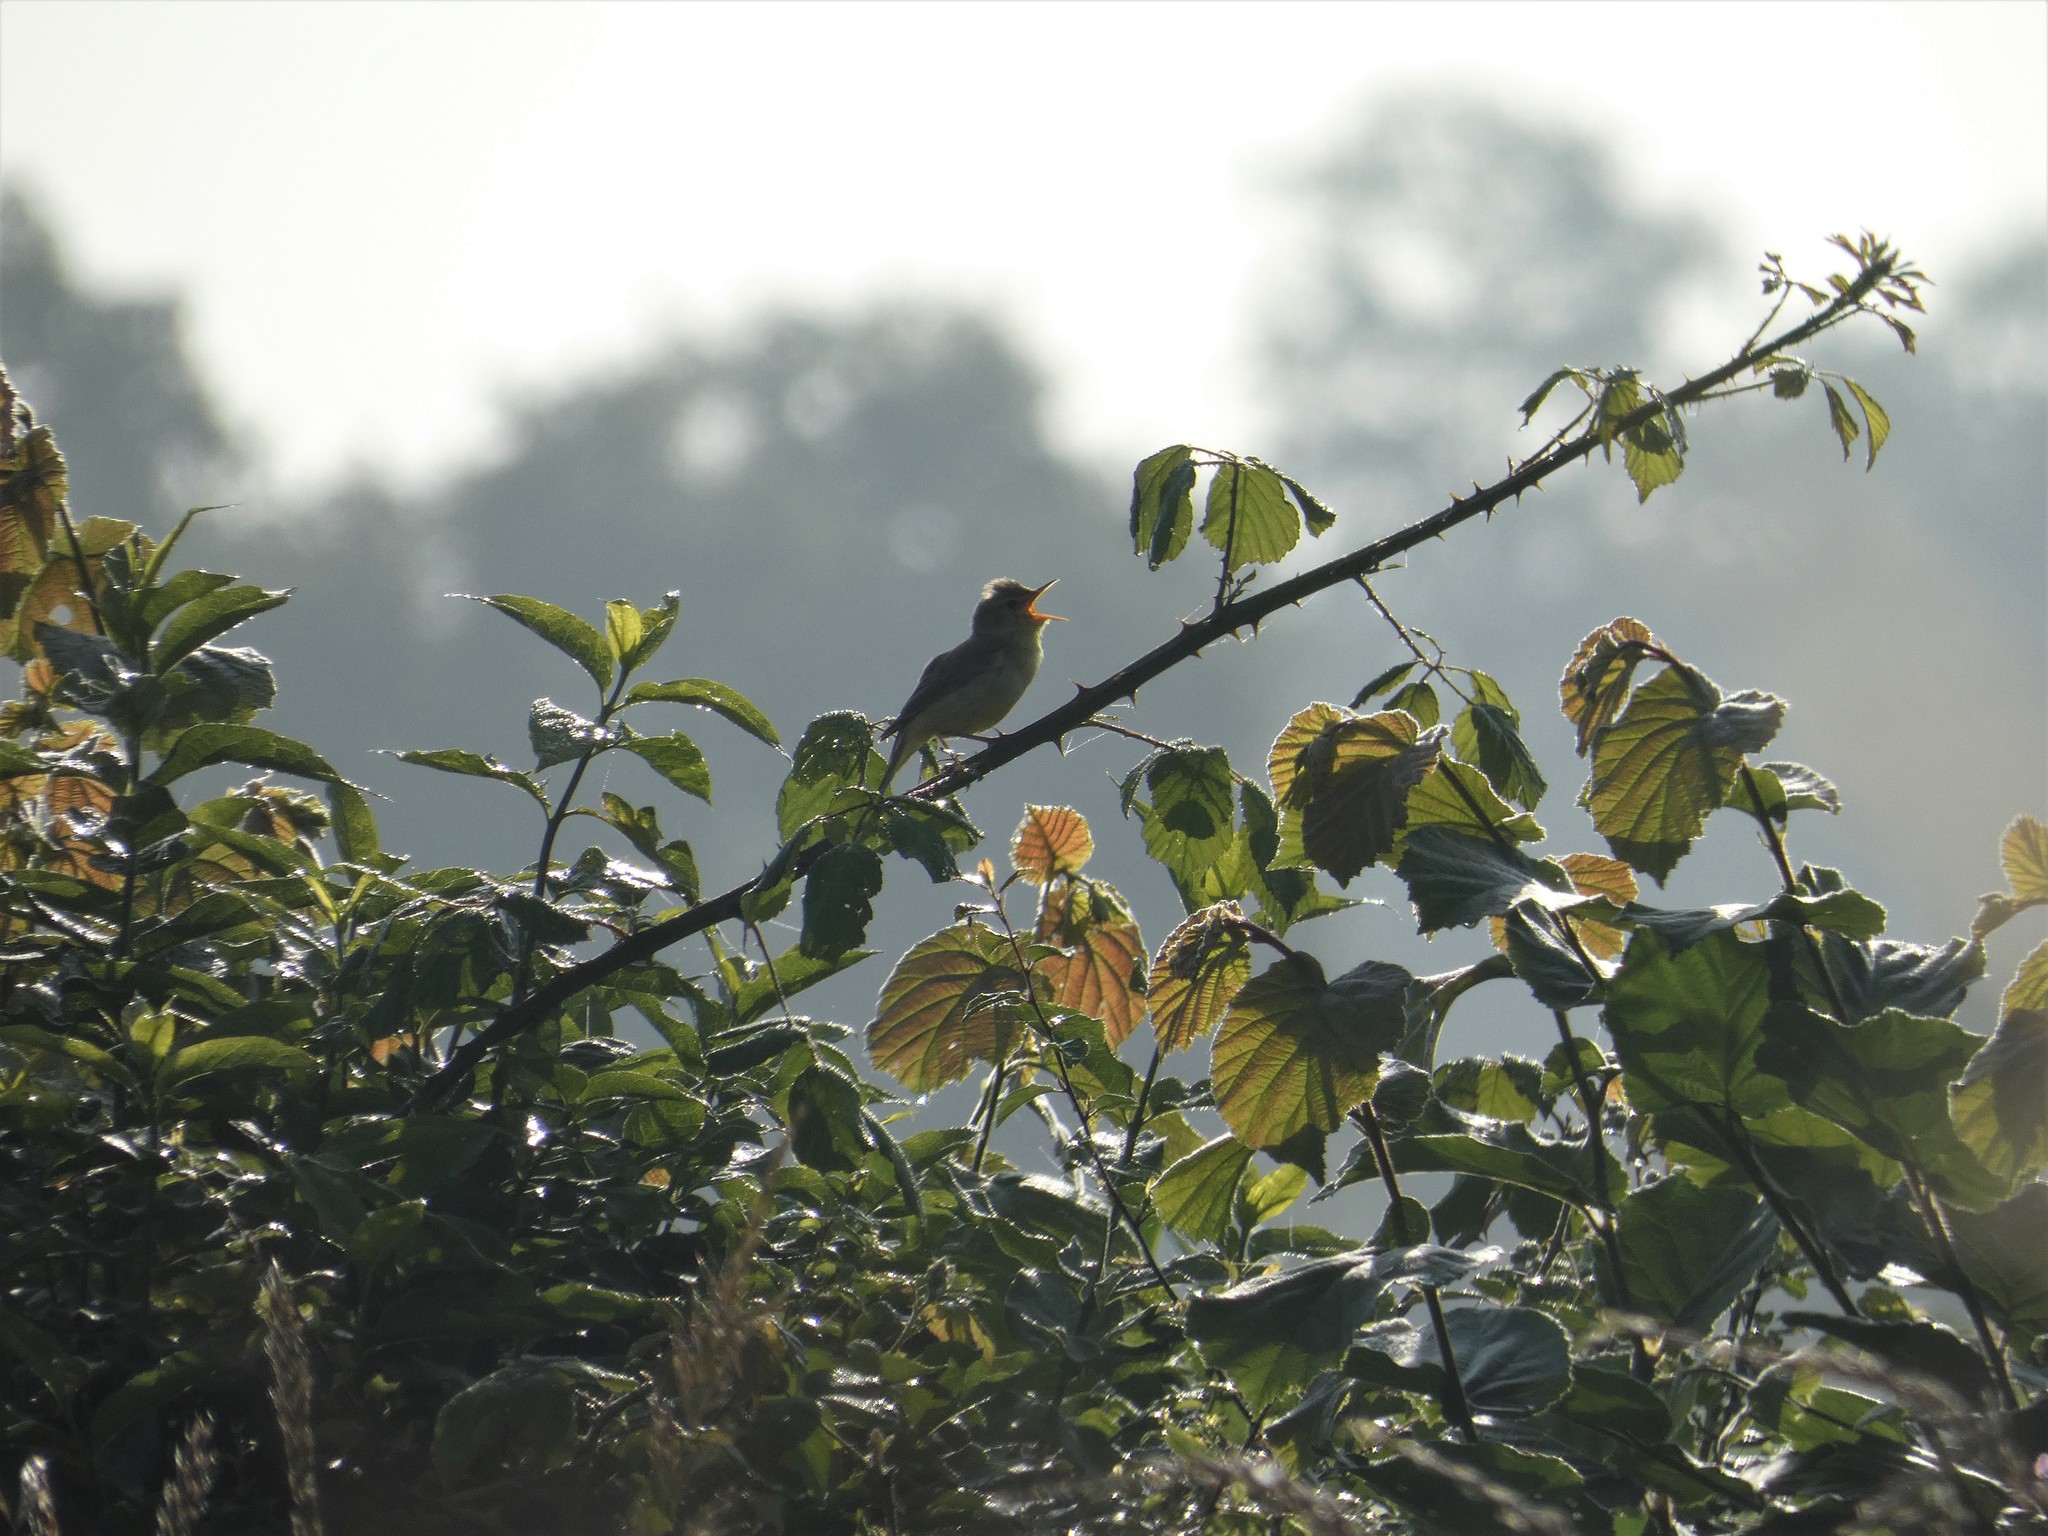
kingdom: Animalia
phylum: Chordata
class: Aves
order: Passeriformes
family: Acrocephalidae
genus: Hippolais
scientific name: Hippolais polyglotta
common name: Melodious warbler
